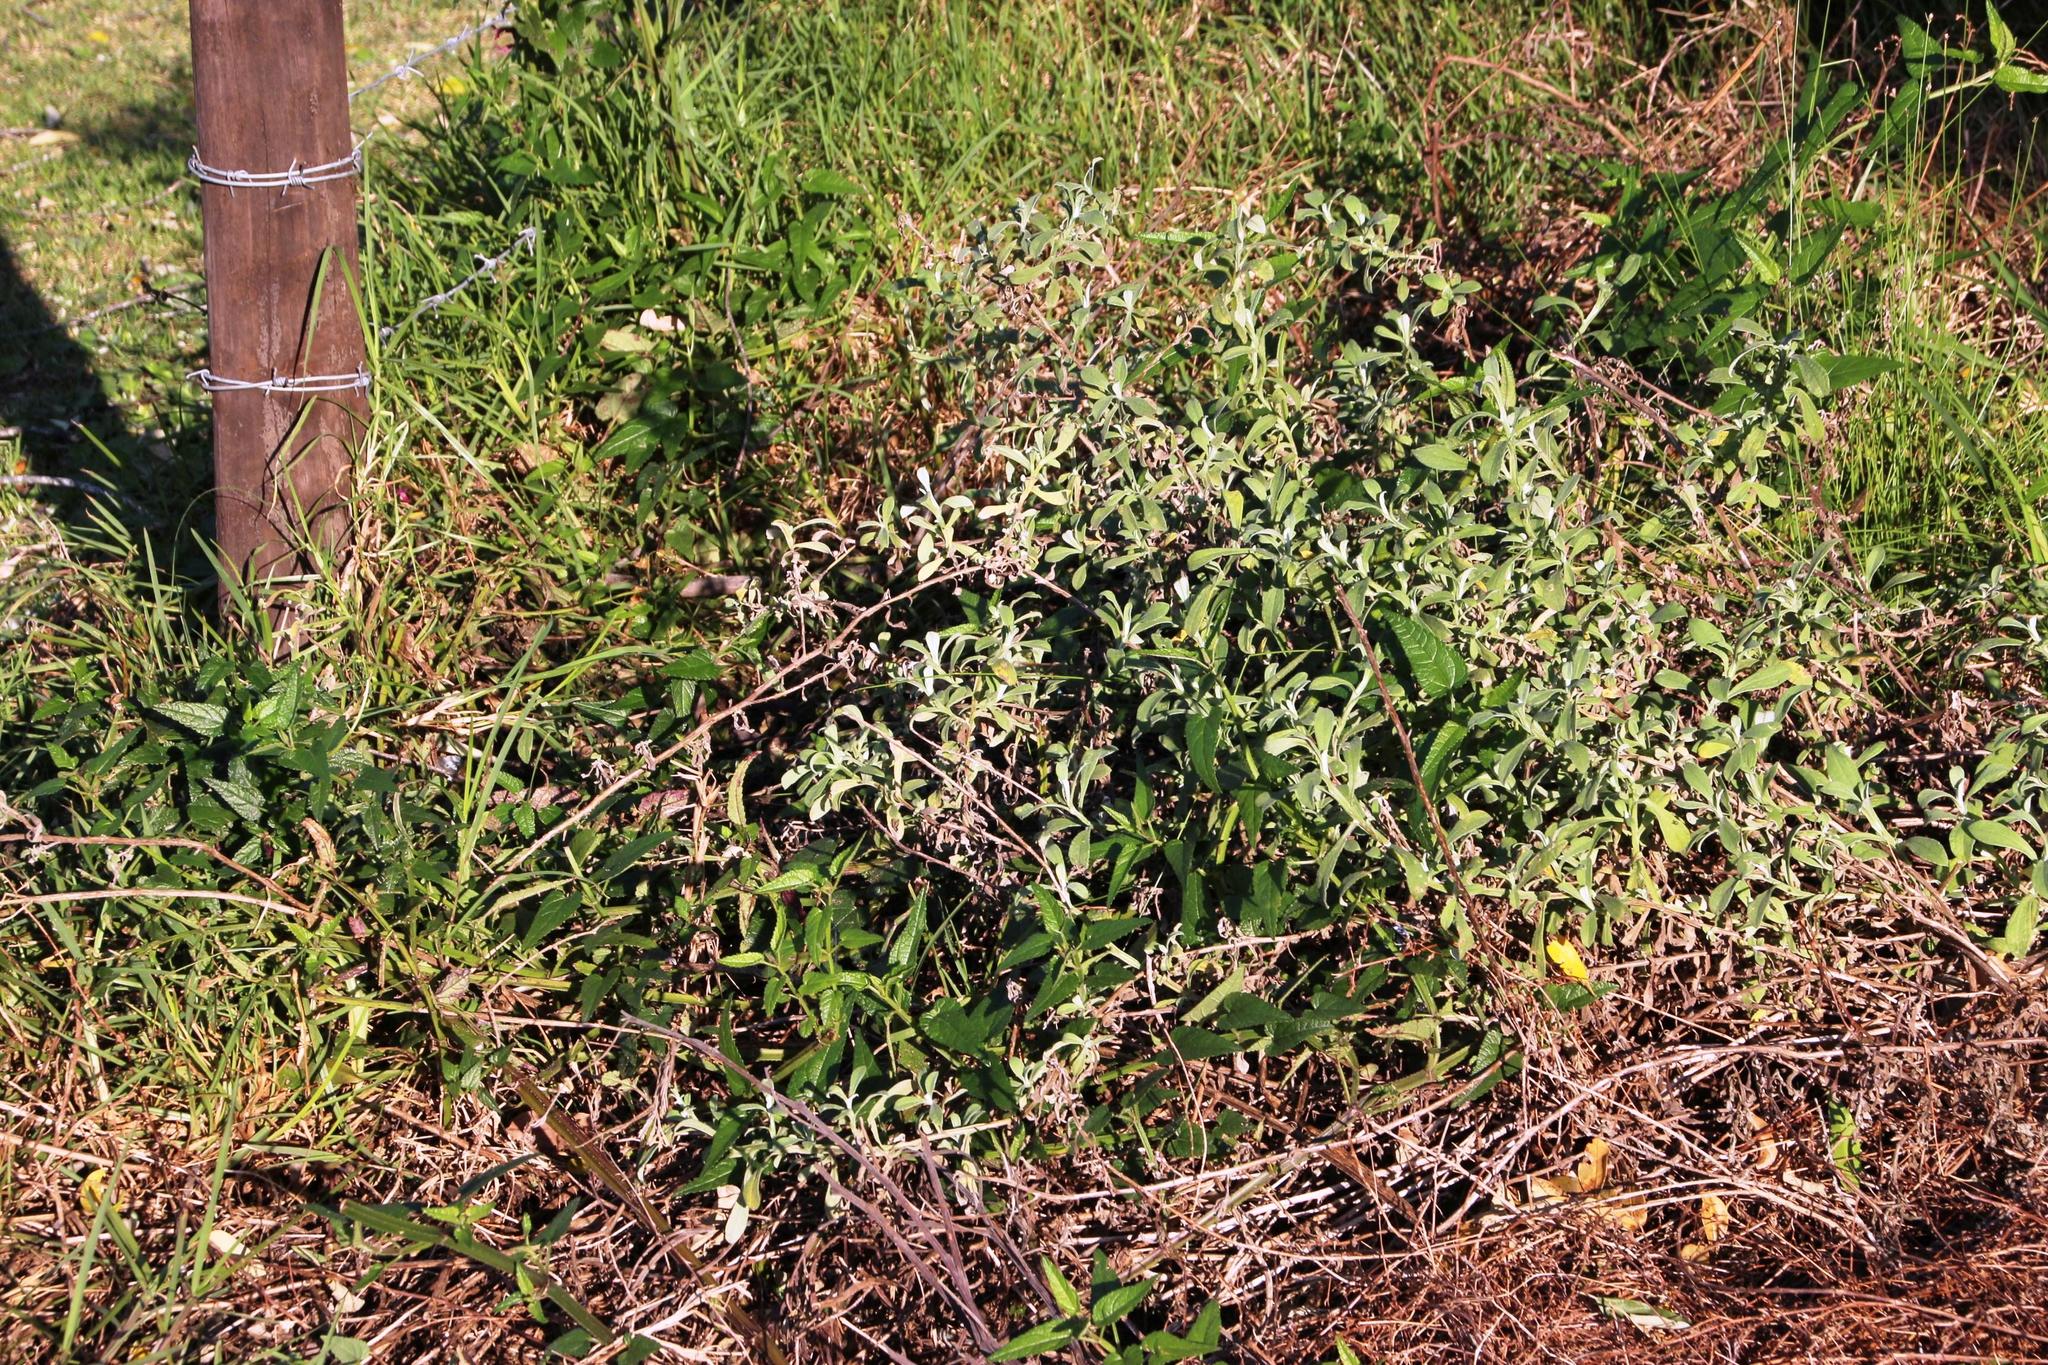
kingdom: Plantae
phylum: Tracheophyta
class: Magnoliopsida
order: Lamiales
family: Lamiaceae
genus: Stachys
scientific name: Stachys thunbergii
